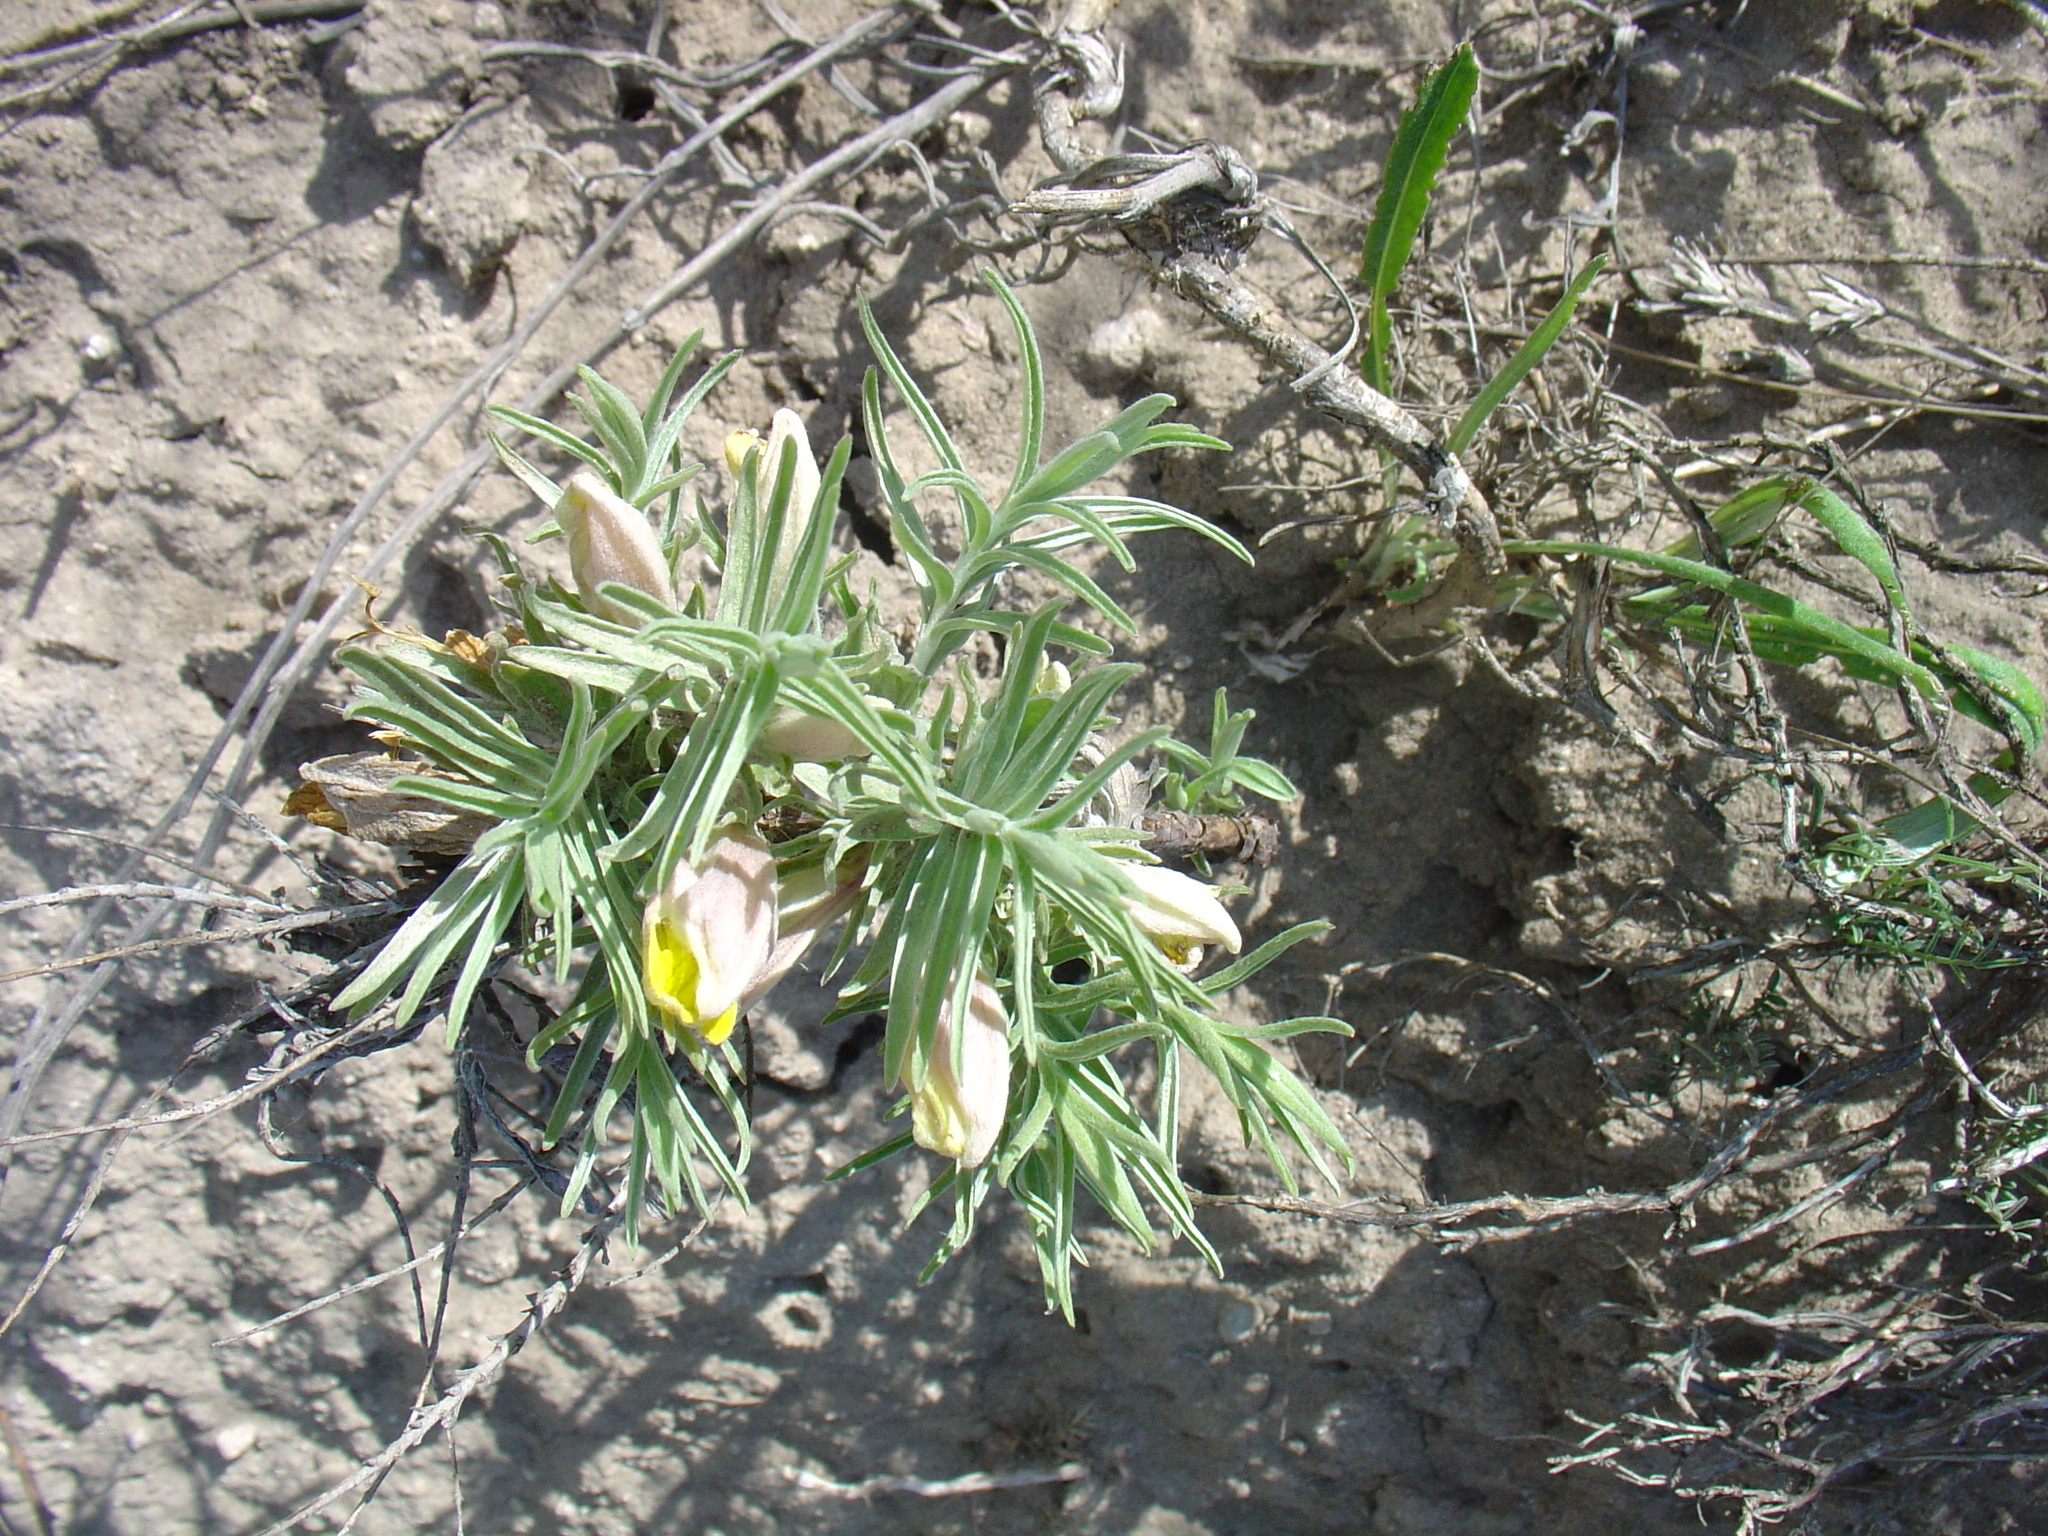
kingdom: Plantae
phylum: Tracheophyta
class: Magnoliopsida
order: Lamiales
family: Orobanchaceae
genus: Cymbaria
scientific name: Cymbaria borysthenica
